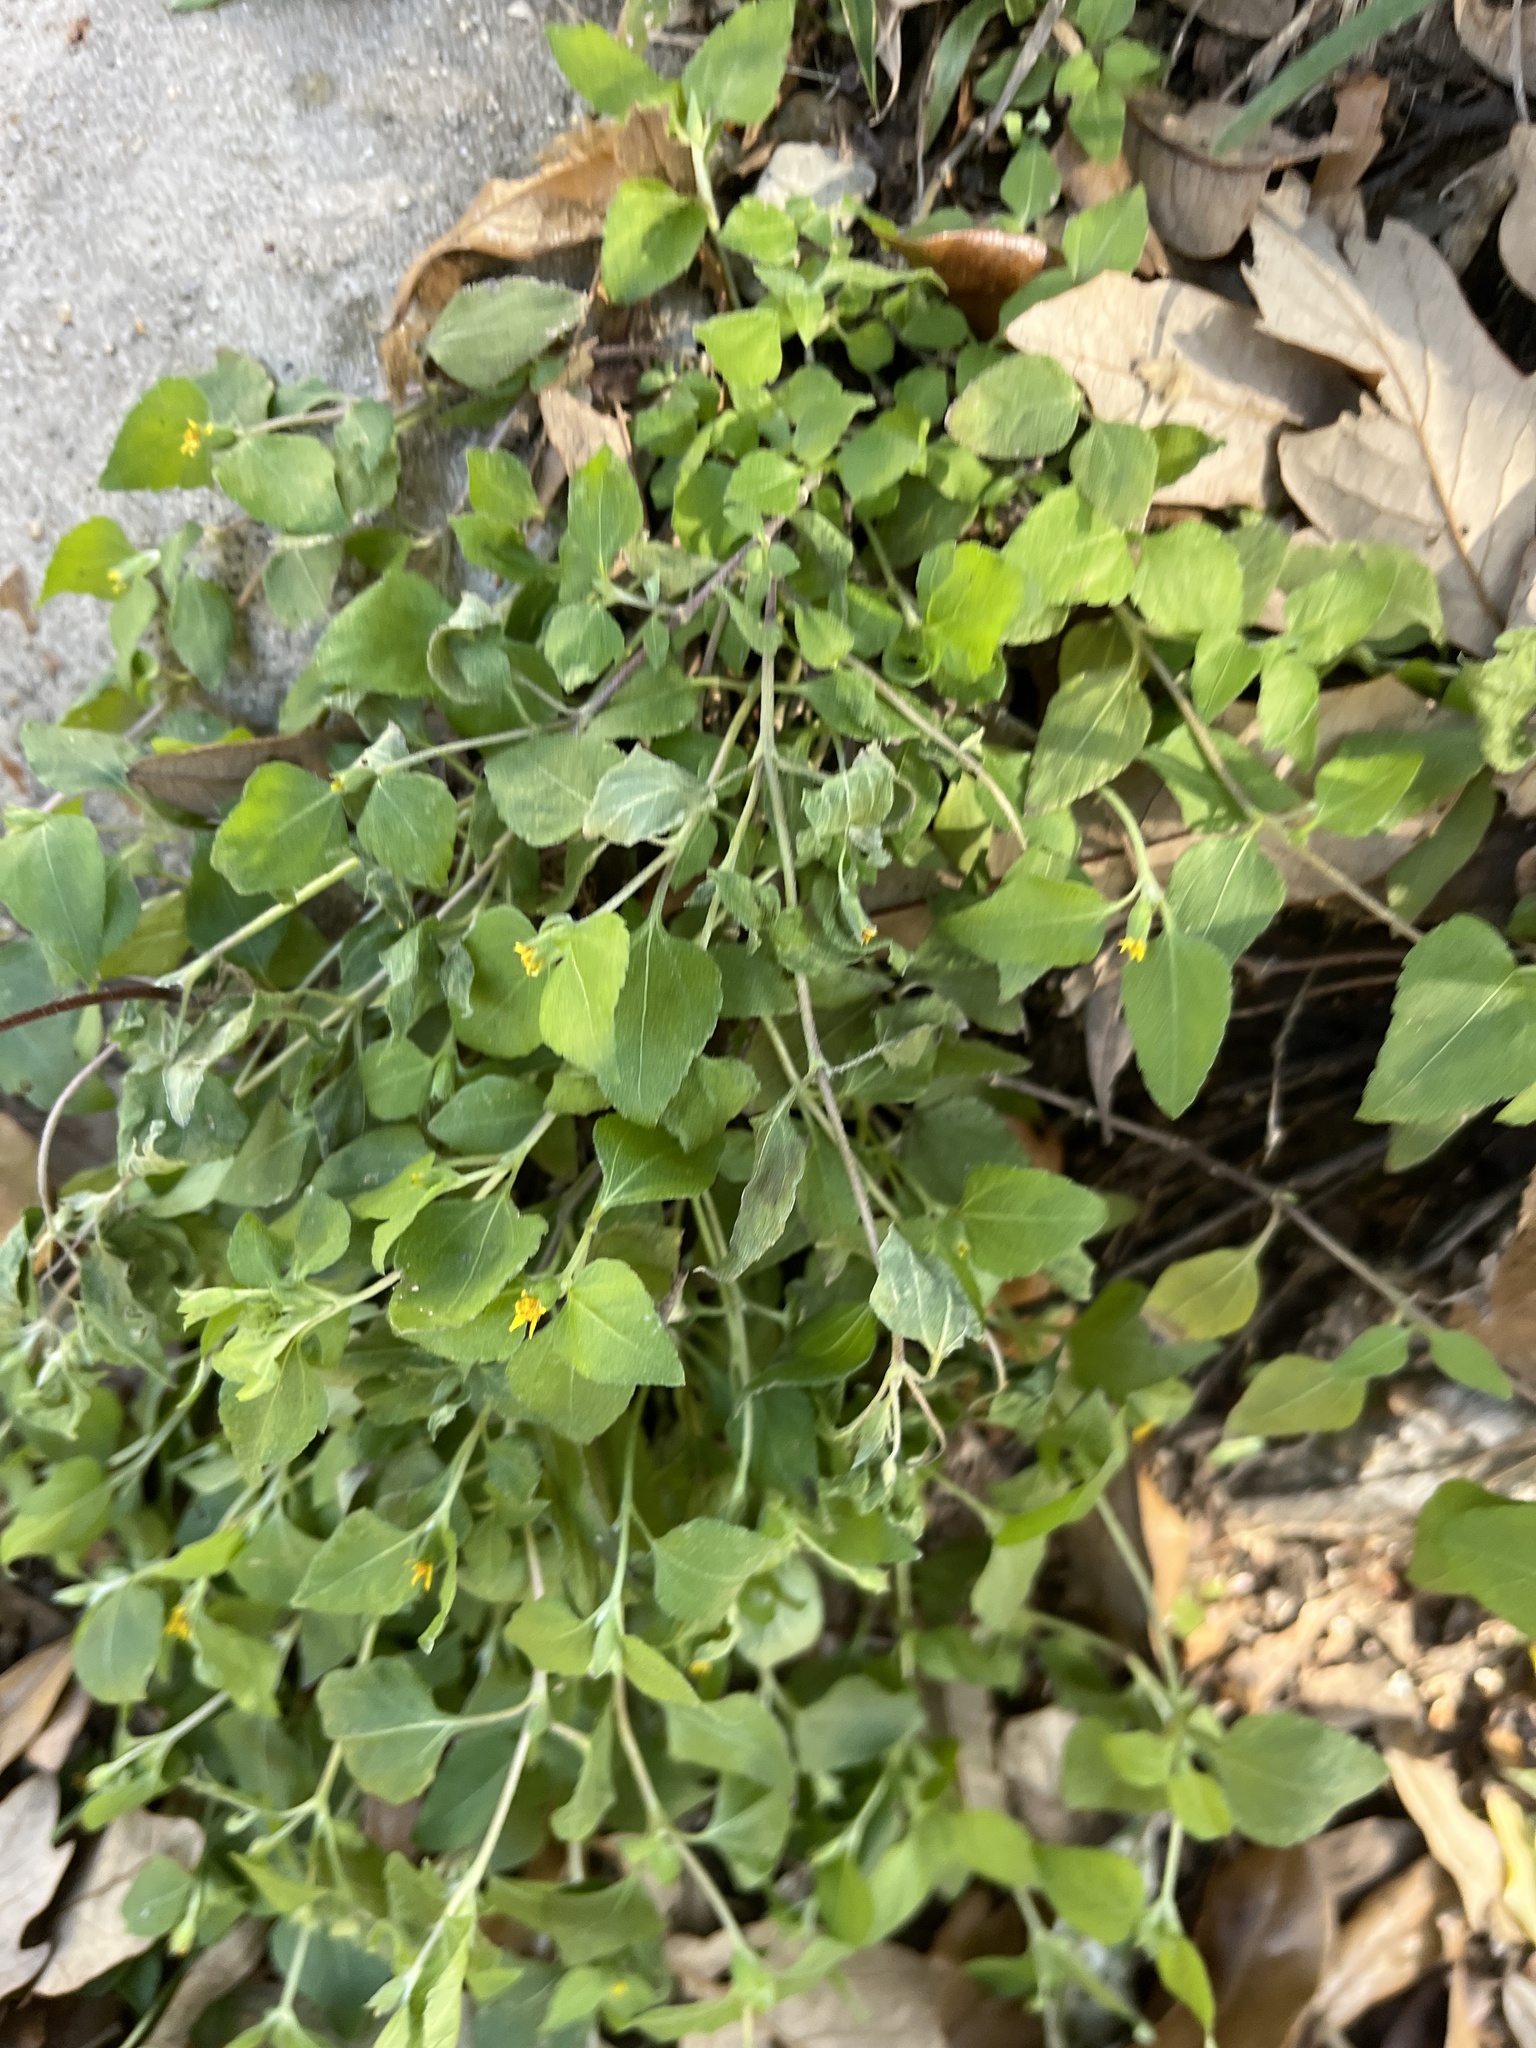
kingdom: Plantae
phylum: Tracheophyta
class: Magnoliopsida
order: Asterales
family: Asteraceae
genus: Calyptocarpus
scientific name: Calyptocarpus vialis
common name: Straggler daisy
